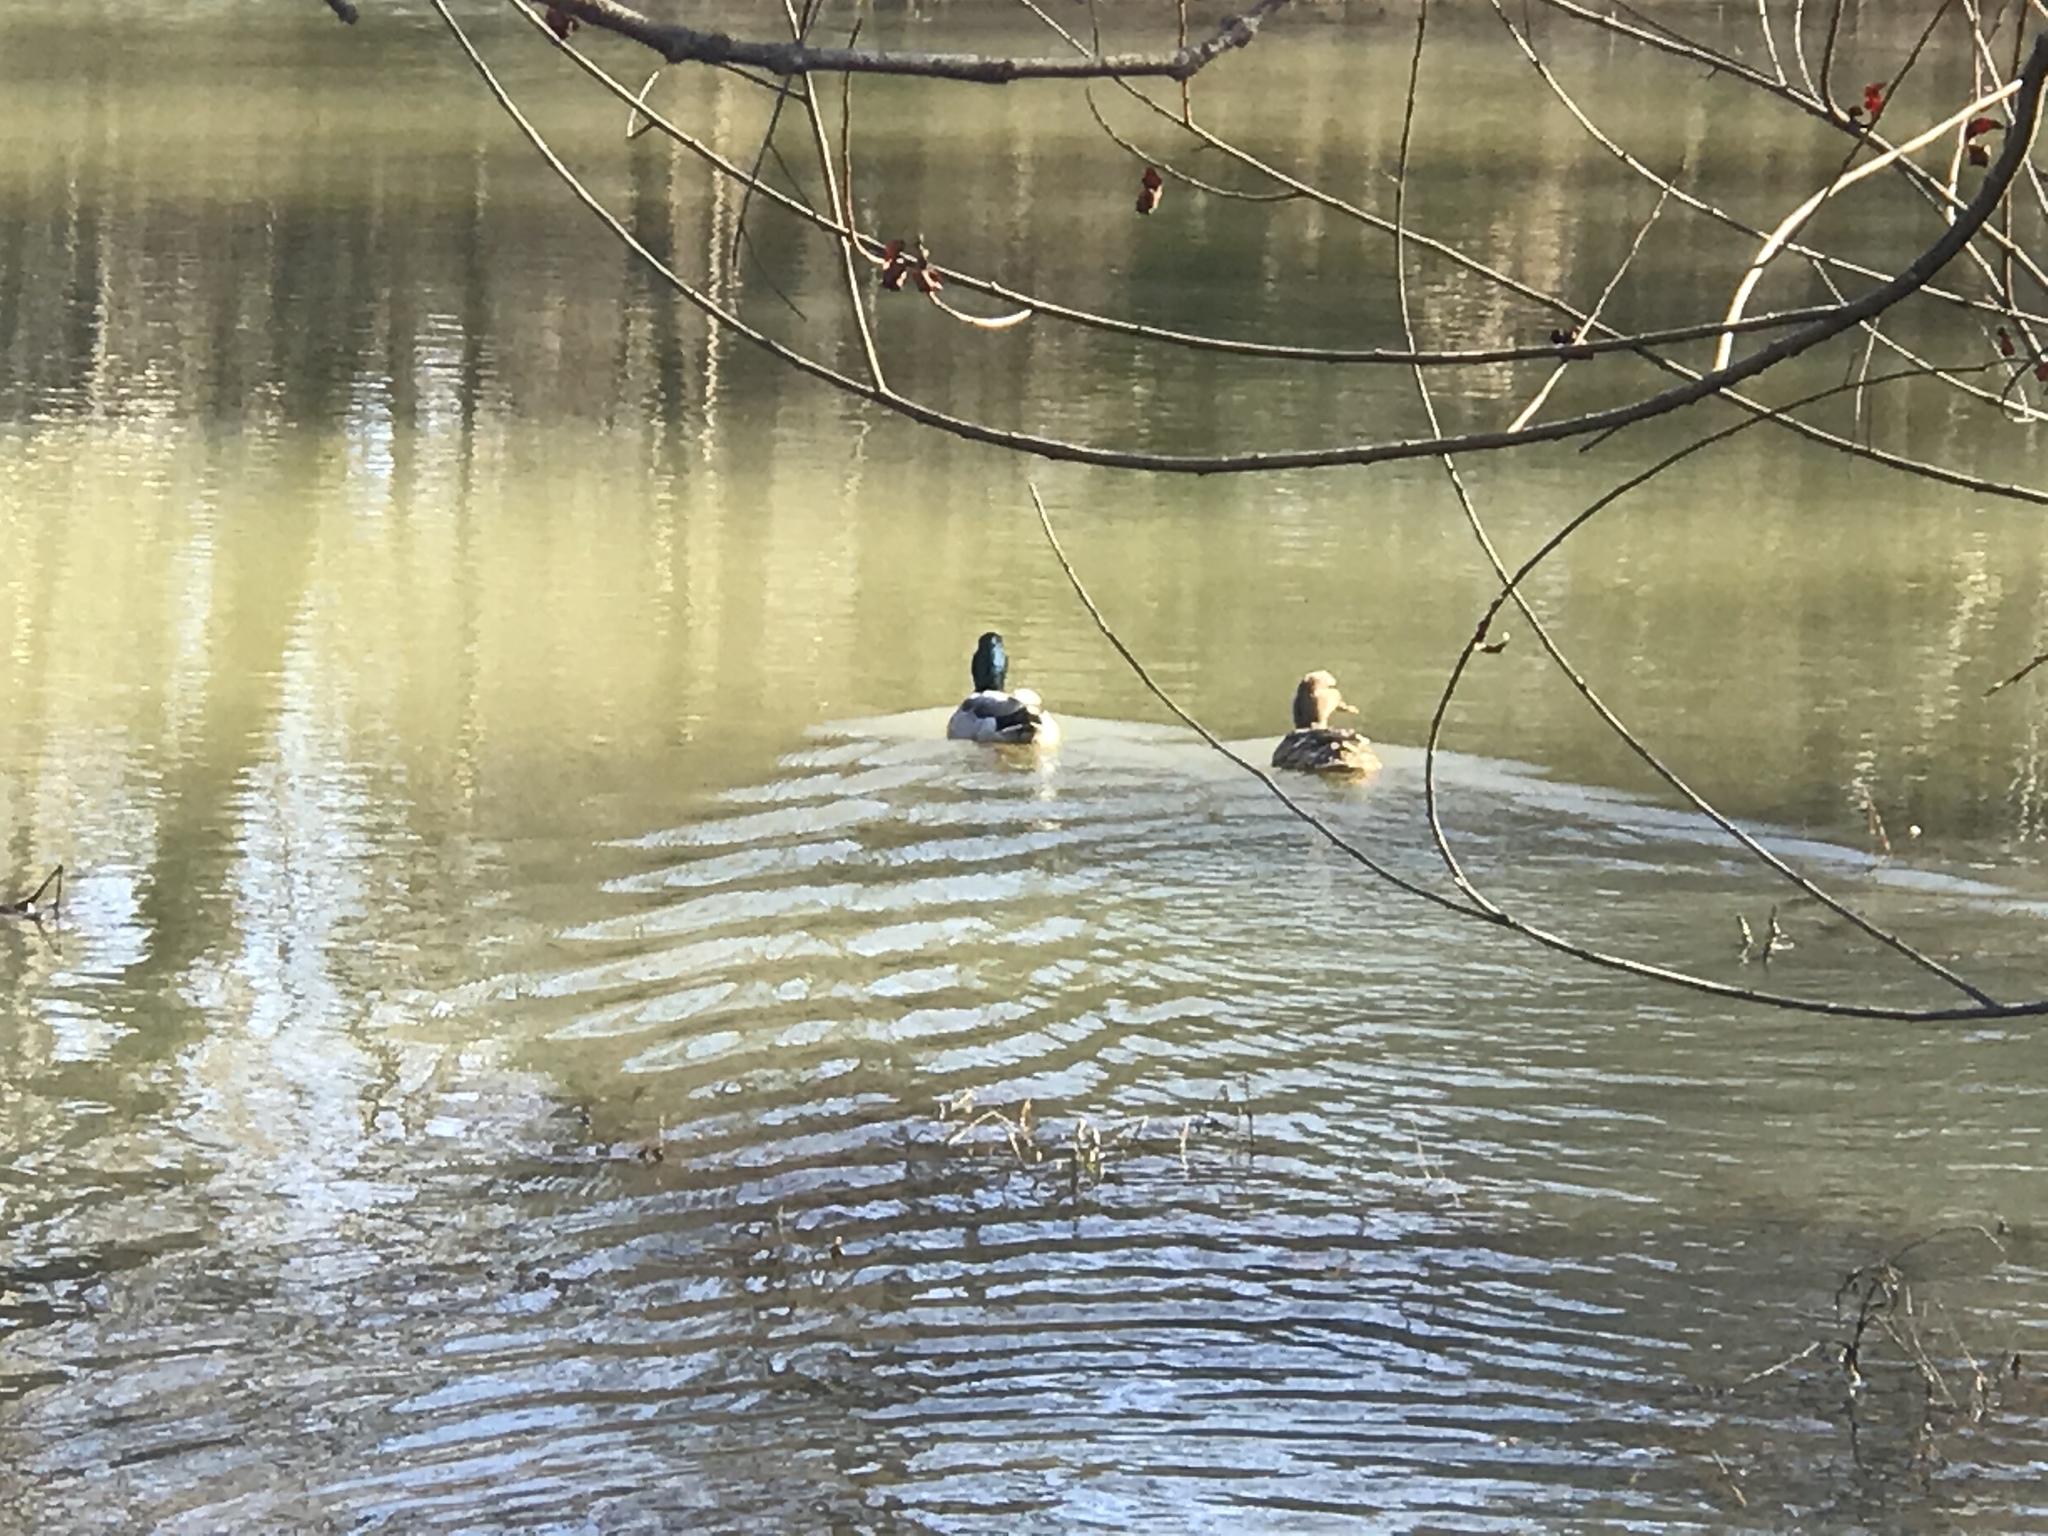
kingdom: Animalia
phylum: Chordata
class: Aves
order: Anseriformes
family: Anatidae
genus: Anas
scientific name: Anas platyrhynchos
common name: Mallard
